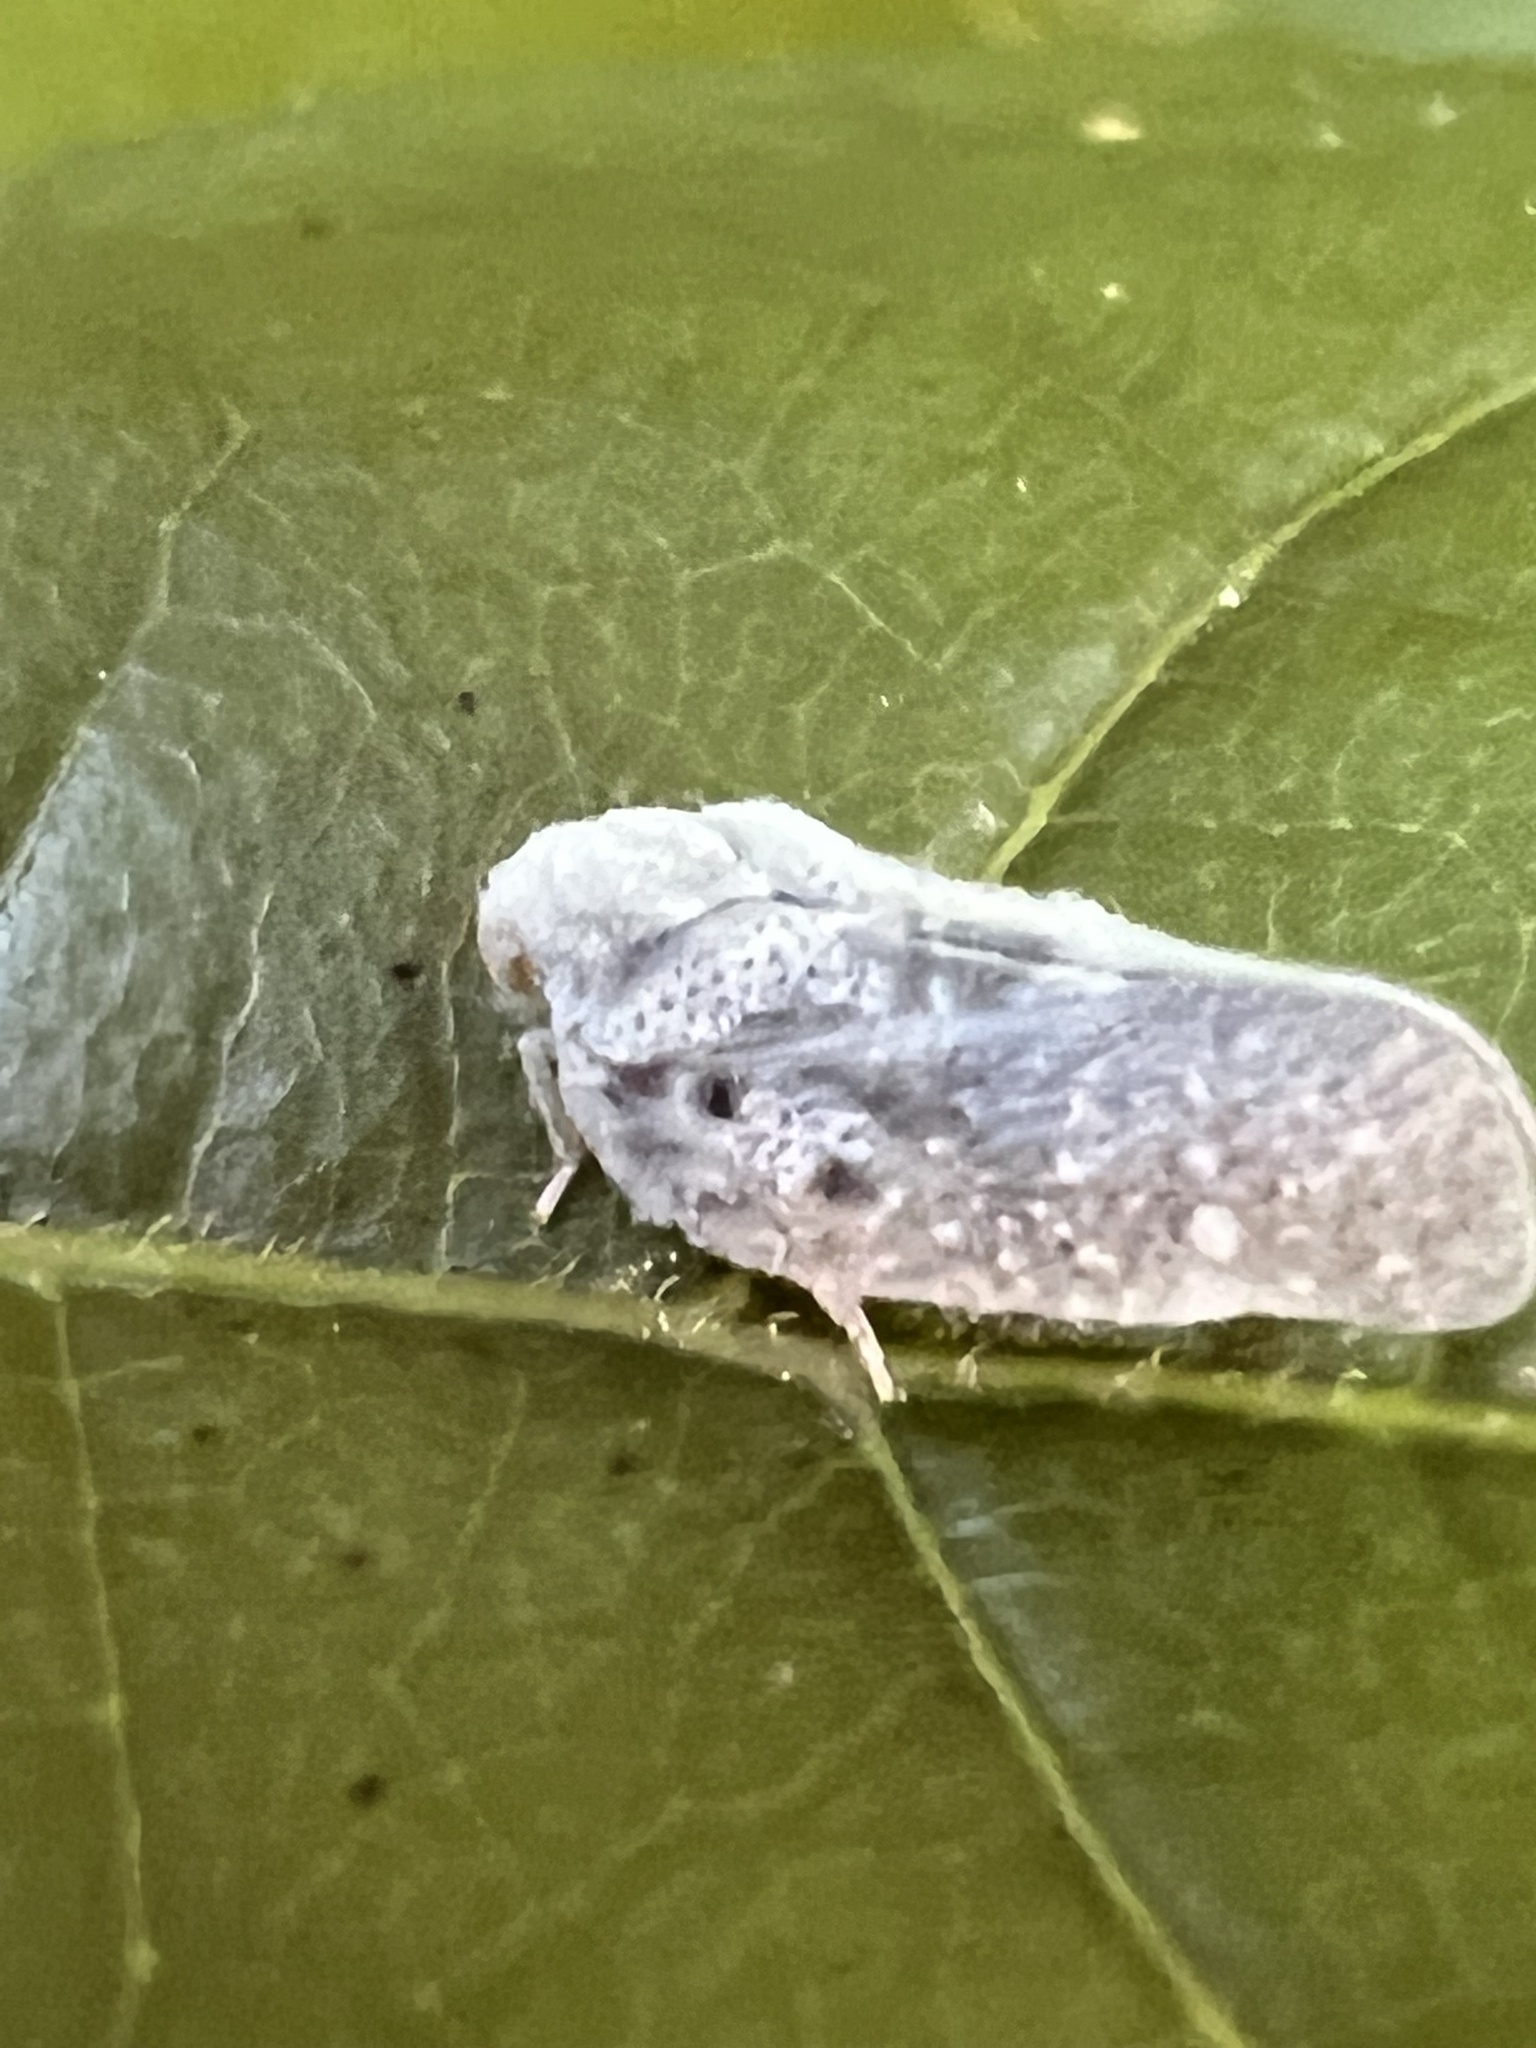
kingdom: Animalia
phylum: Arthropoda
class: Insecta
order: Hemiptera
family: Flatidae
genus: Metcalfa
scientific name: Metcalfa pruinosa
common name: Citrus flatid planthopper
